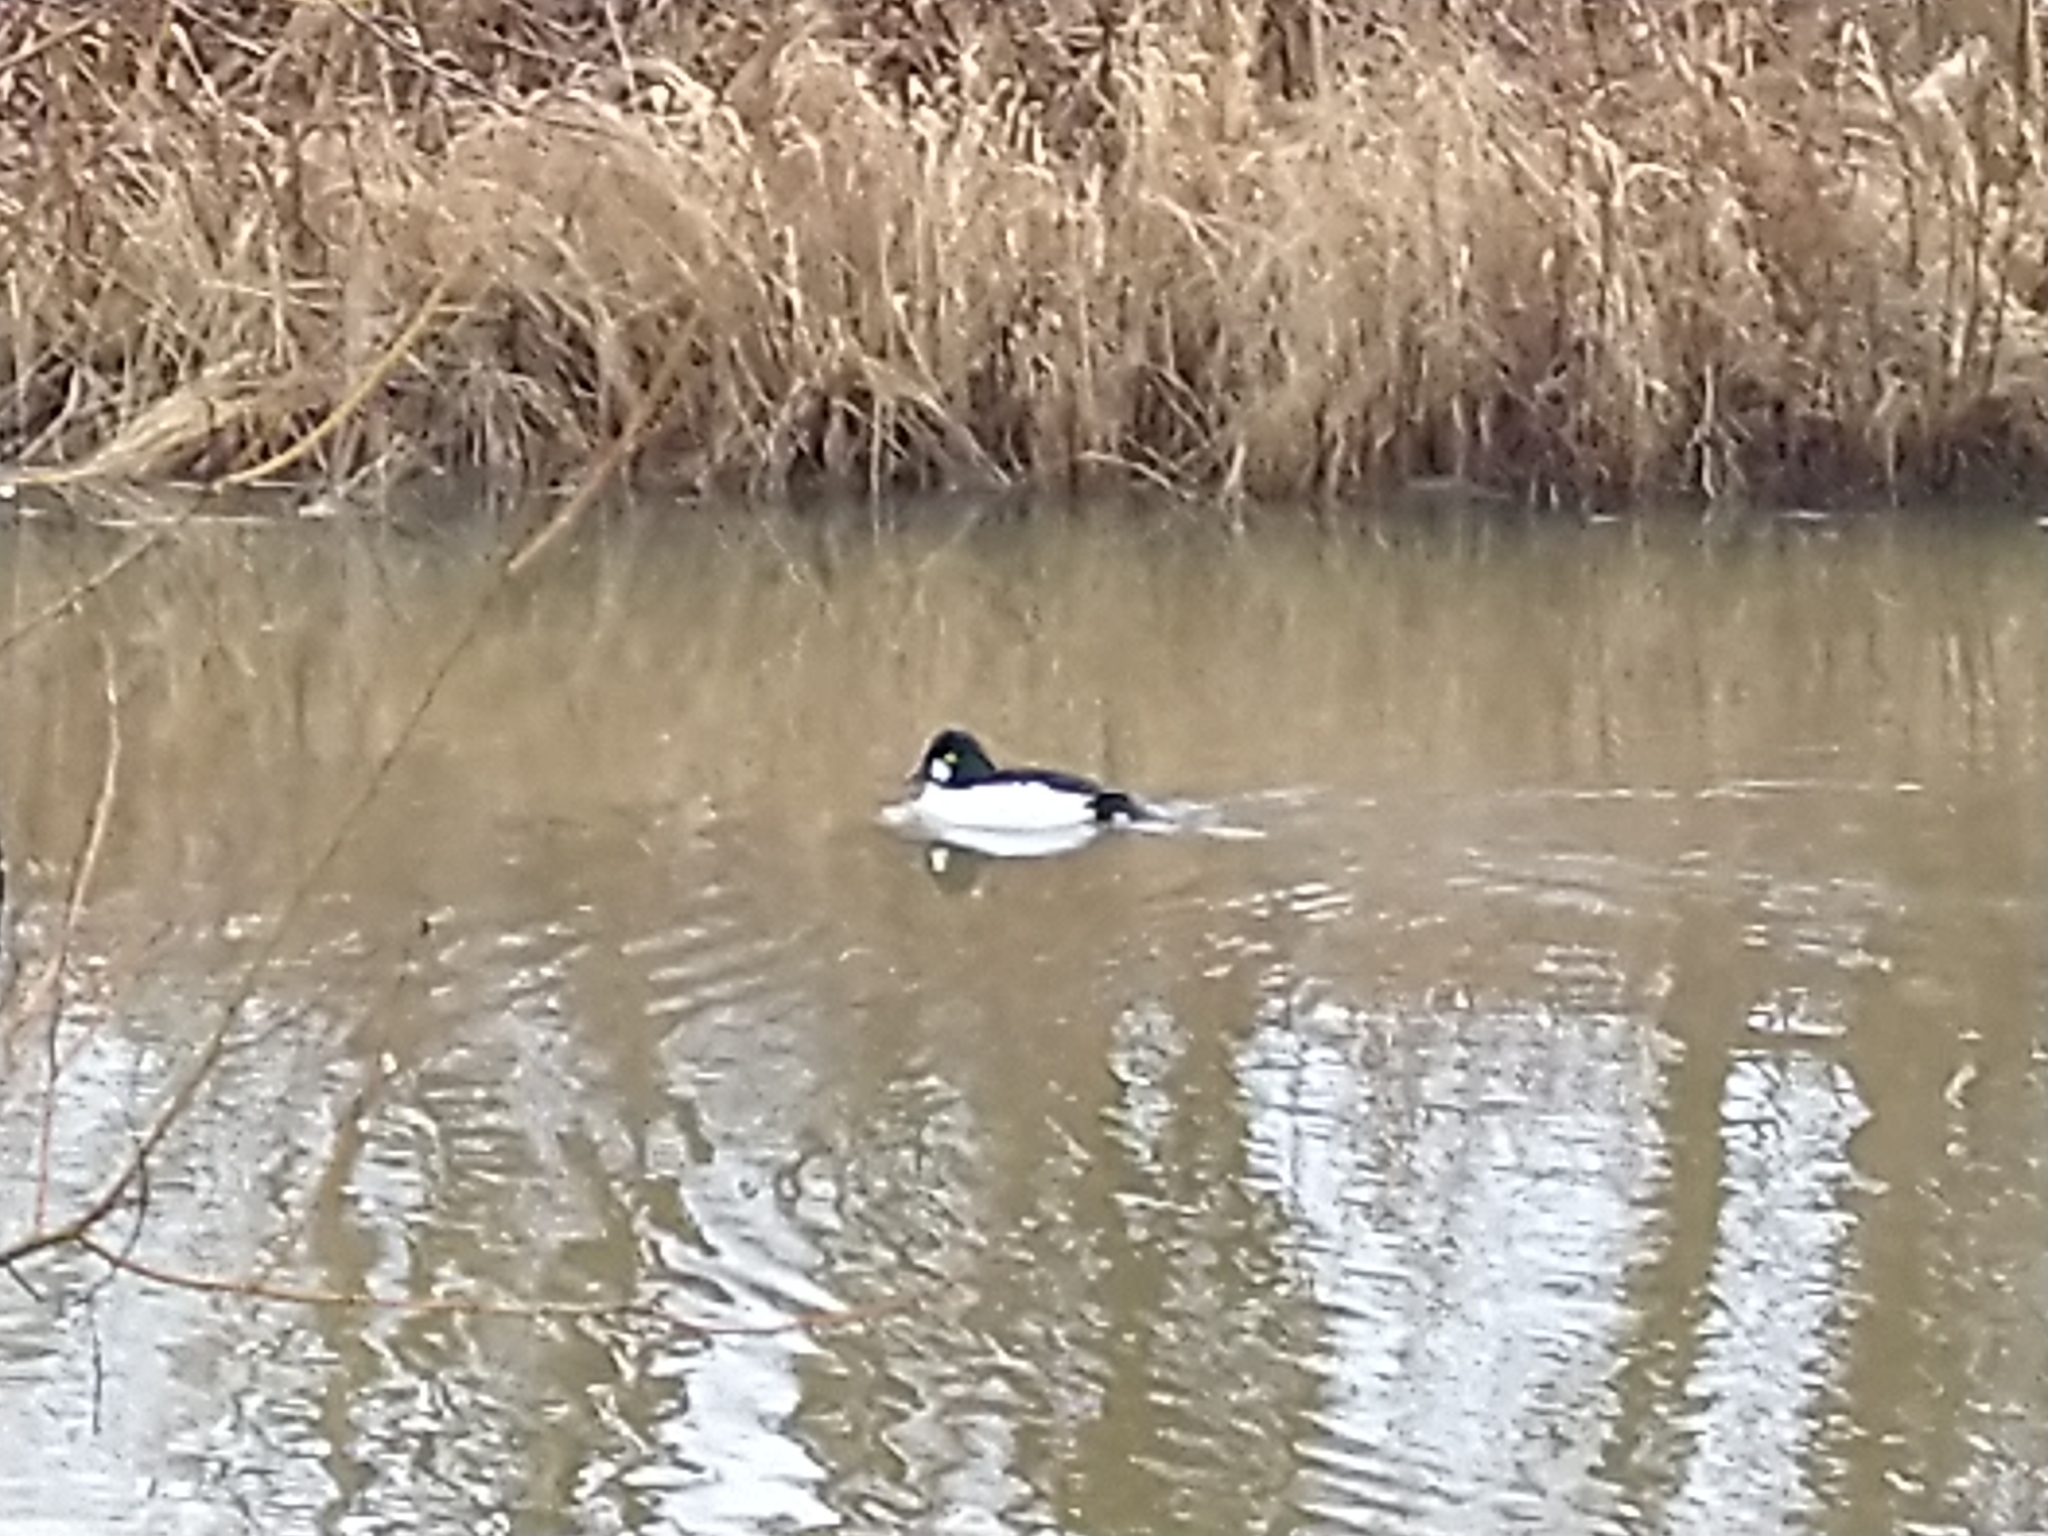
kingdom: Animalia
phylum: Chordata
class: Aves
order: Anseriformes
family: Anatidae
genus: Bucephala
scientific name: Bucephala clangula
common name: Common goldeneye
